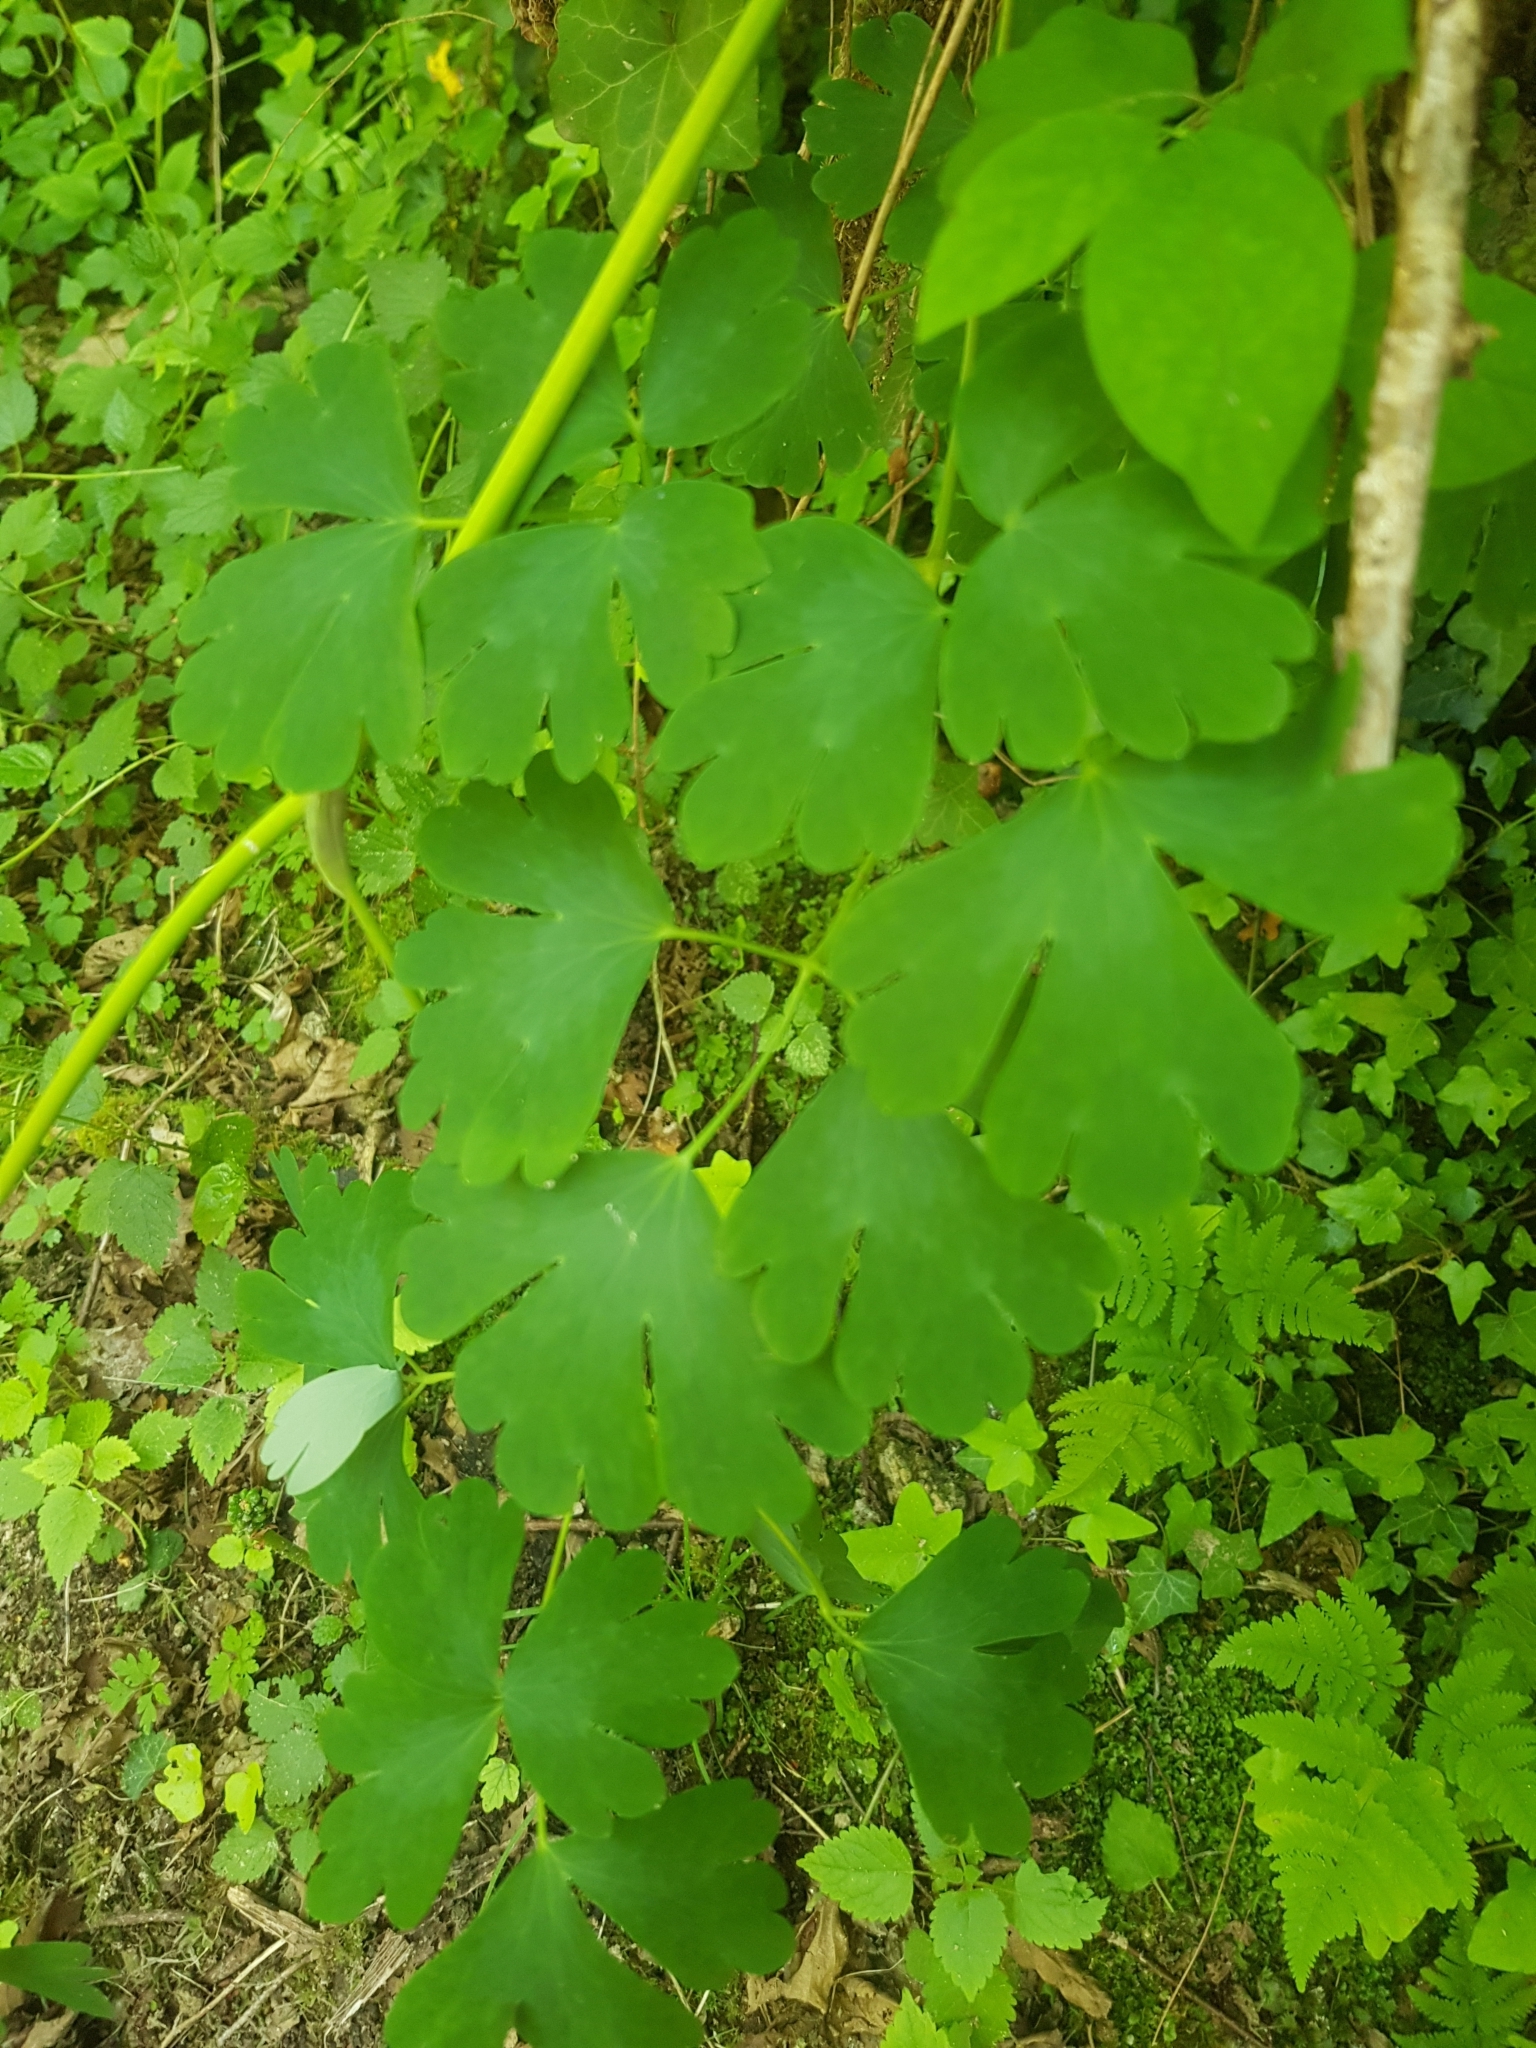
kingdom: Plantae
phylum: Tracheophyta
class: Magnoliopsida
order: Ranunculales
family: Ranunculaceae
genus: Aquilegia
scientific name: Aquilegia vulgaris
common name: Columbine
